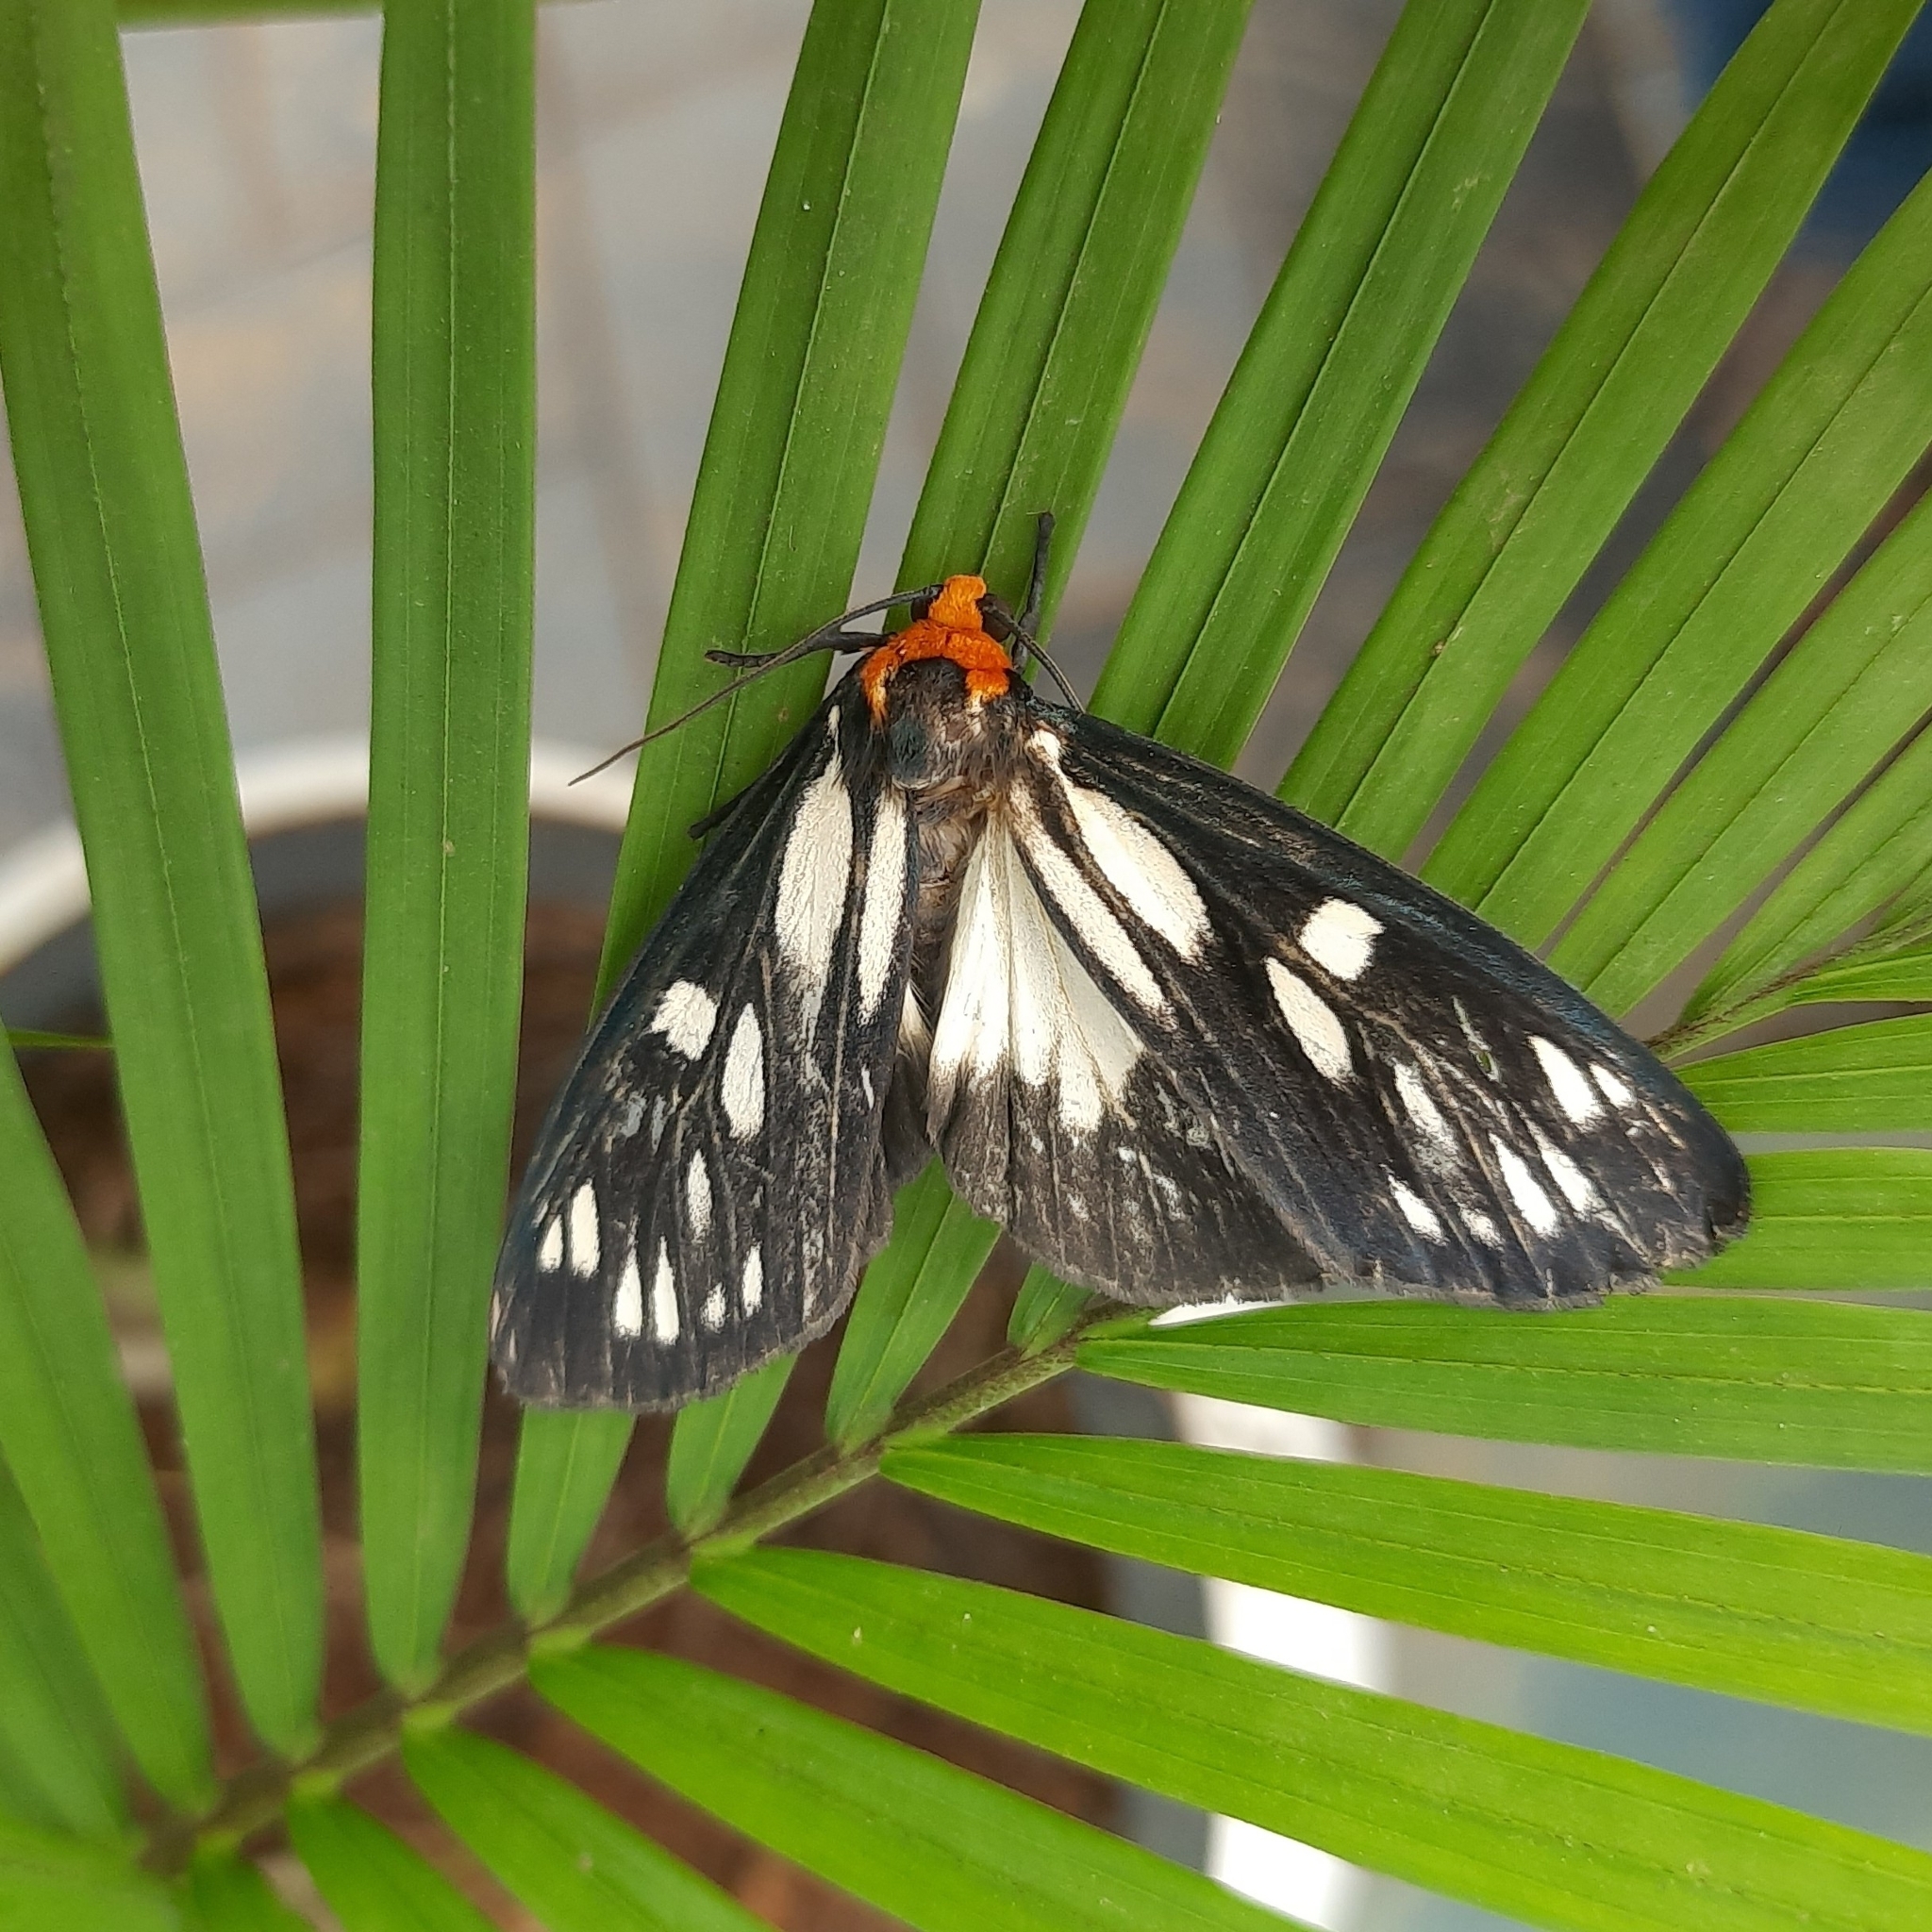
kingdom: Animalia
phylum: Arthropoda
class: Insecta
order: Lepidoptera
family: Erebidae
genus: Macrobrochis
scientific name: Macrobrochis gigas
